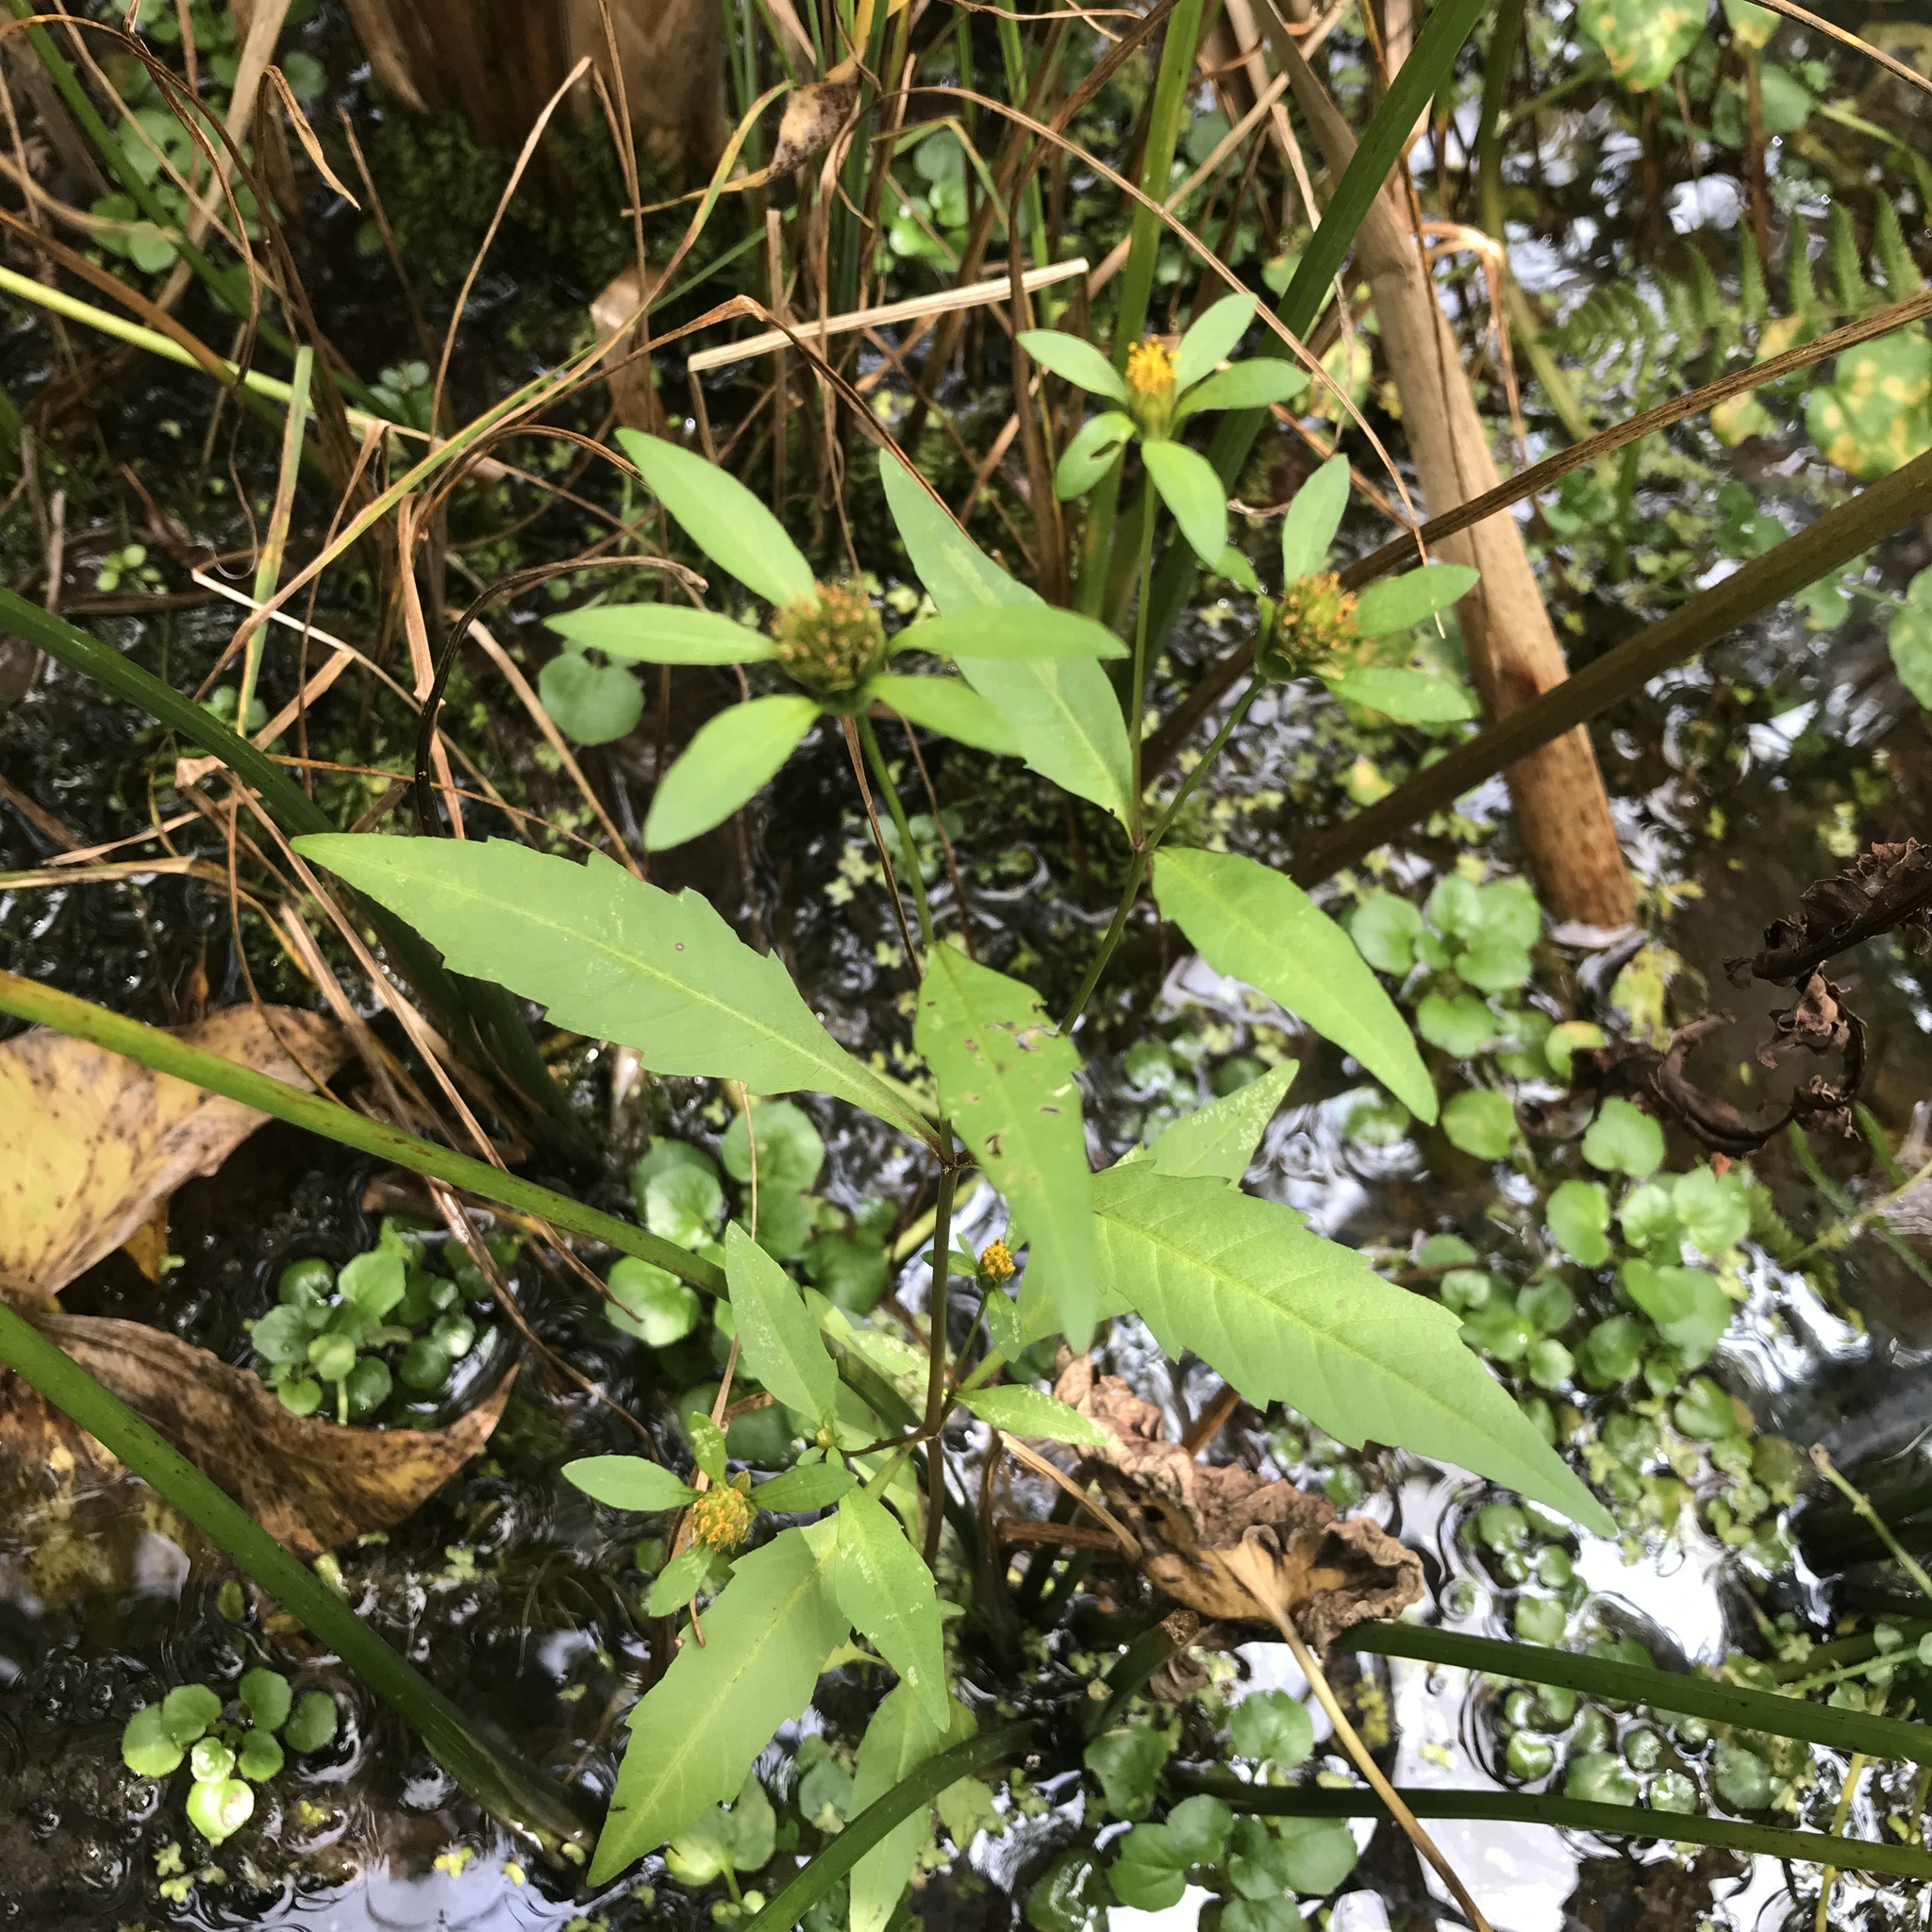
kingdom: Plantae
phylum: Tracheophyta
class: Magnoliopsida
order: Asterales
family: Asteraceae
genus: Bidens
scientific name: Bidens connata
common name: London bur-marigold
